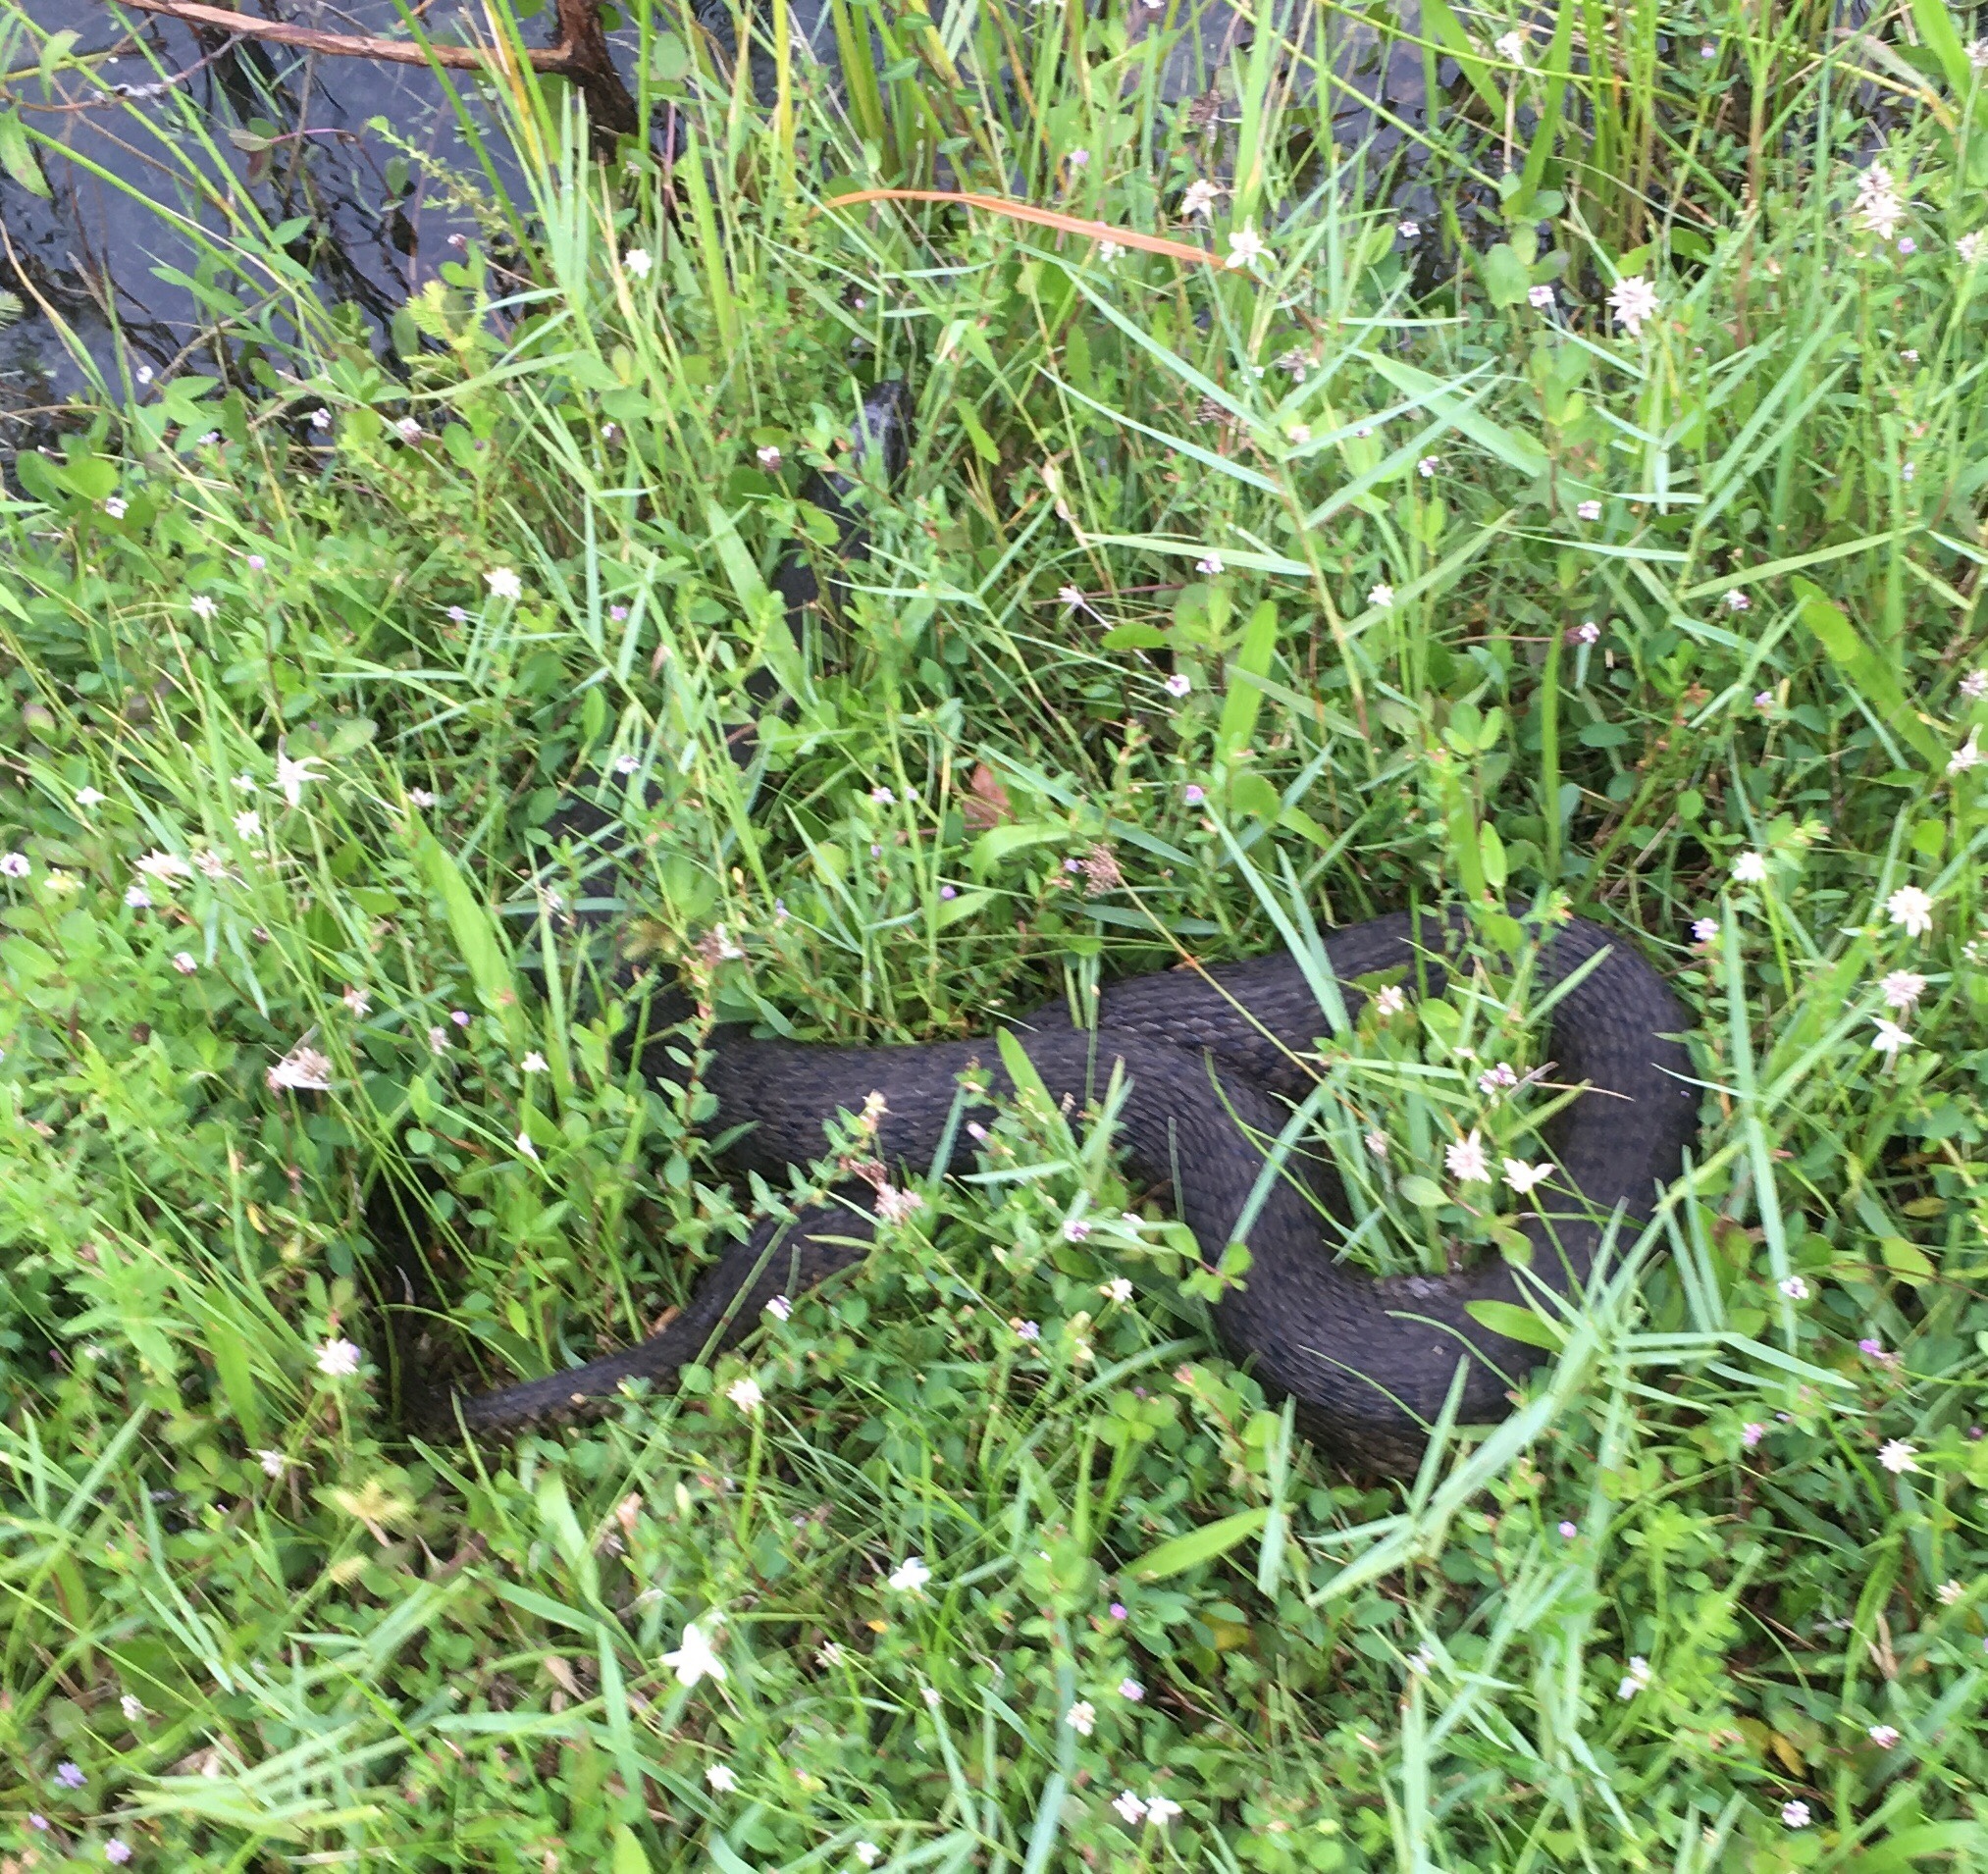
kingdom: Animalia
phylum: Chordata
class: Squamata
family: Colubridae
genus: Nerodia
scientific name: Nerodia floridana
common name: Florida green watersnake
